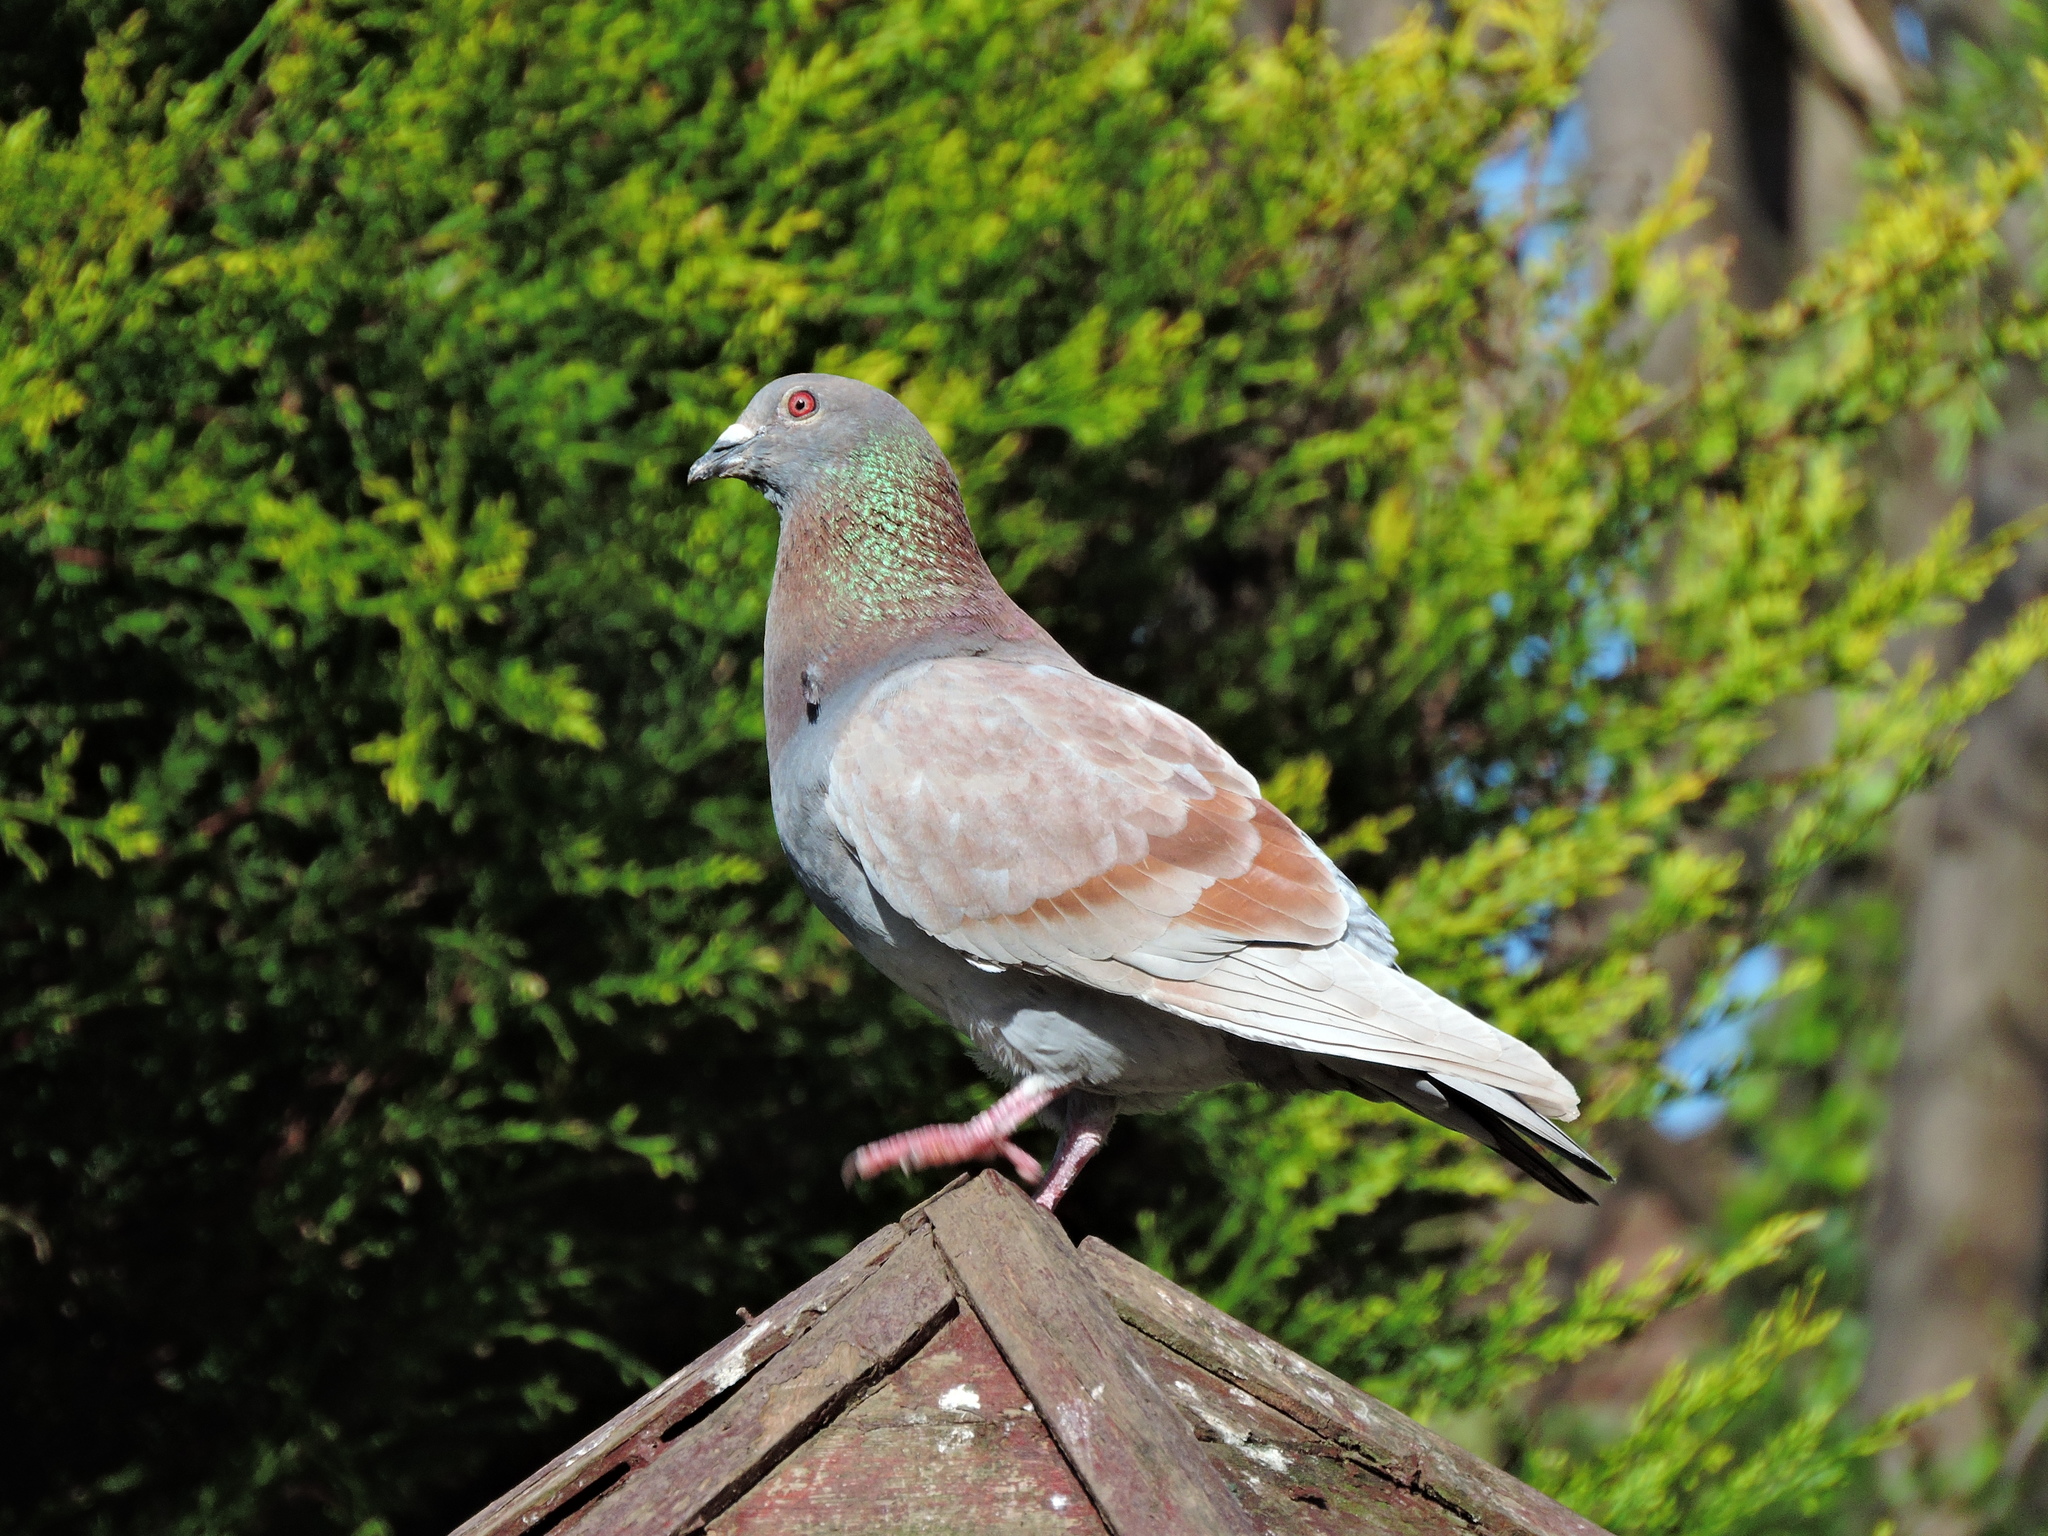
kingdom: Animalia
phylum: Chordata
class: Aves
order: Columbiformes
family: Columbidae
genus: Columba
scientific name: Columba livia
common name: Rock pigeon
